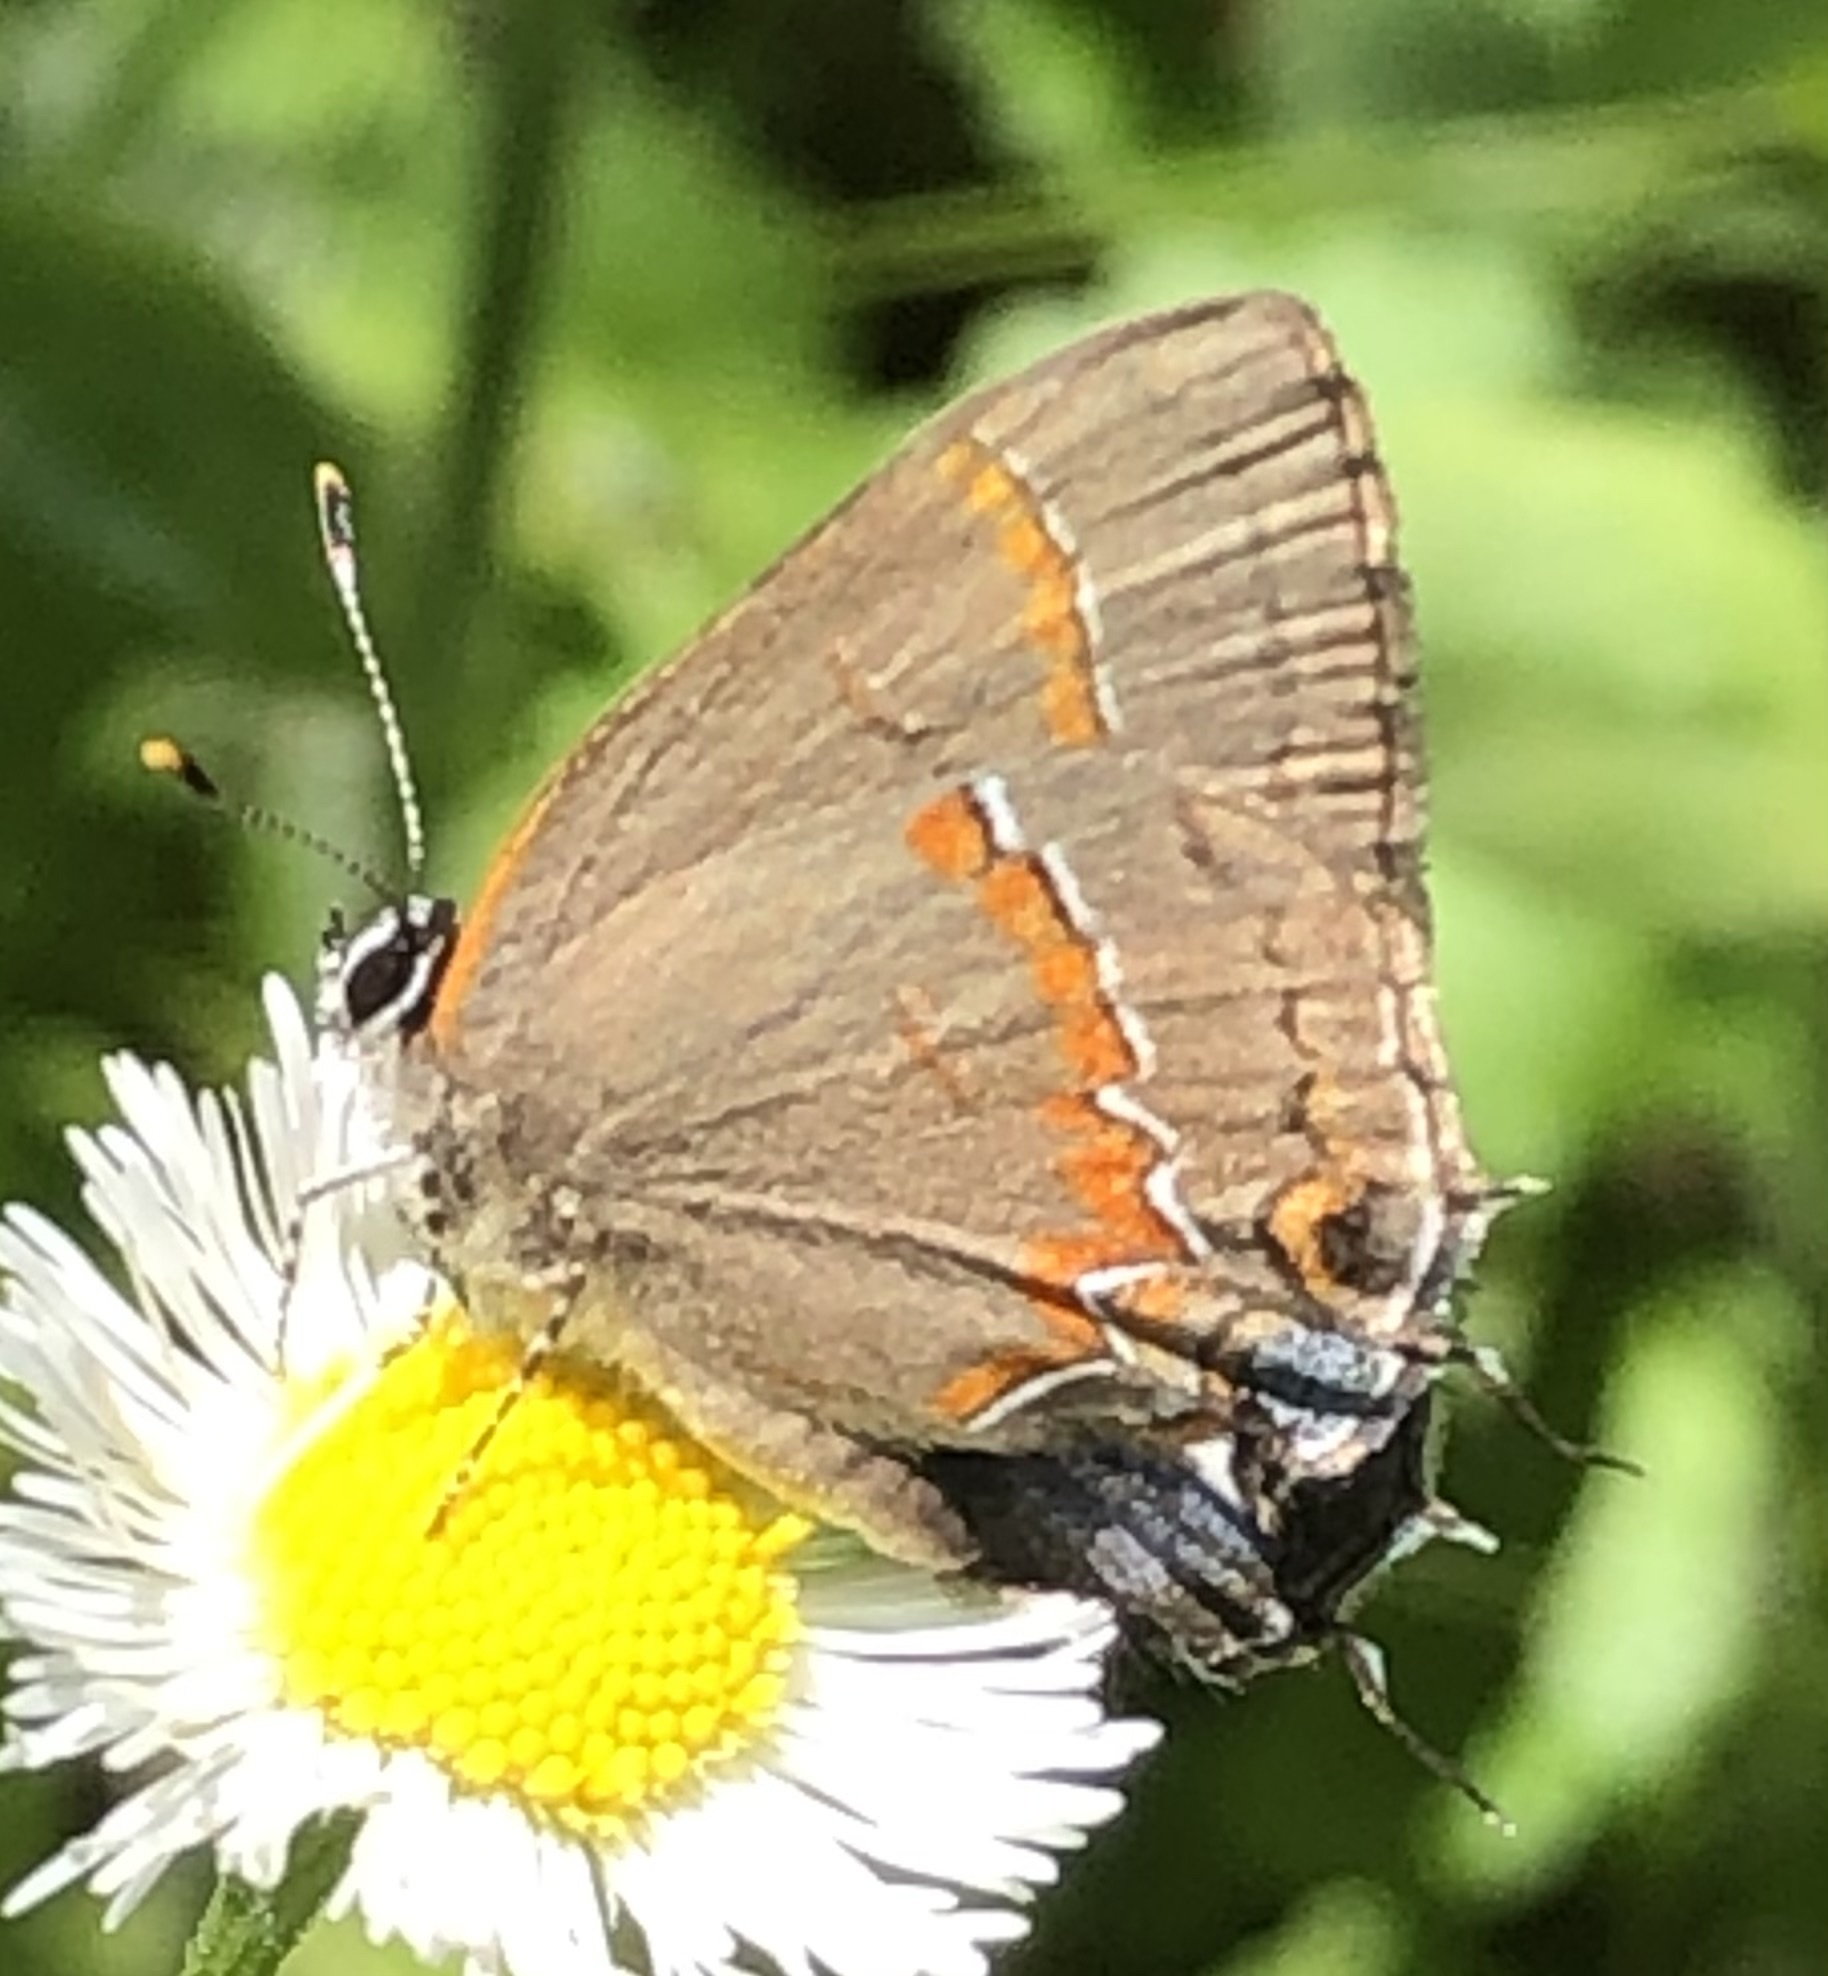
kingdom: Animalia
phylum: Arthropoda
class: Insecta
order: Lepidoptera
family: Lycaenidae
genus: Calycopis
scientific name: Calycopis cecrops
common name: Red-banded hairstreak
